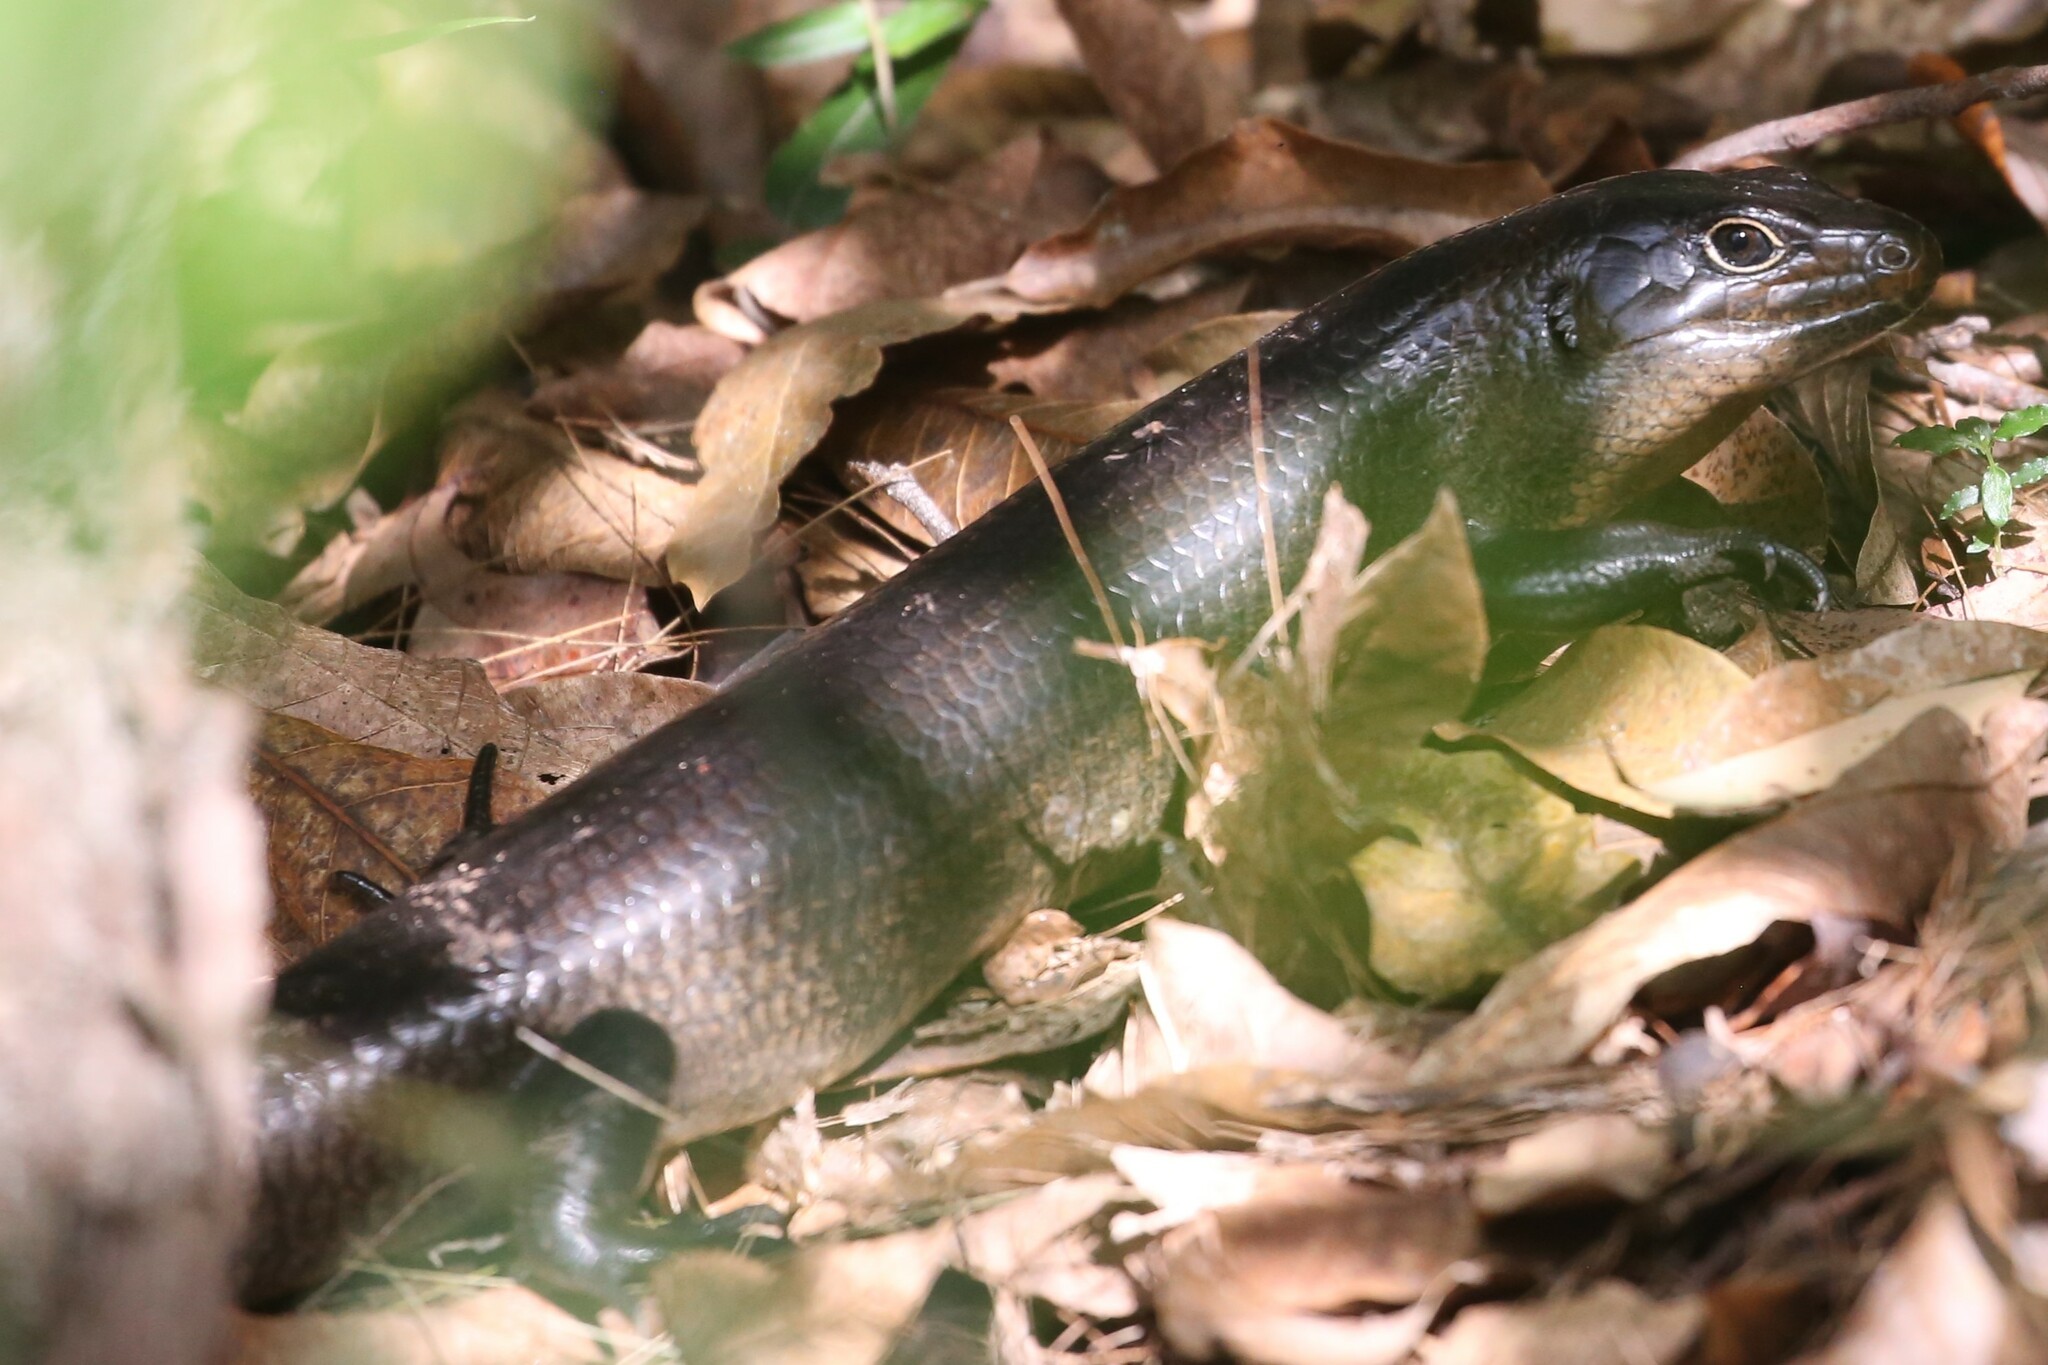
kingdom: Animalia
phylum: Chordata
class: Squamata
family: Scincidae
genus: Bellatorias
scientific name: Bellatorias major
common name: Land mullet
